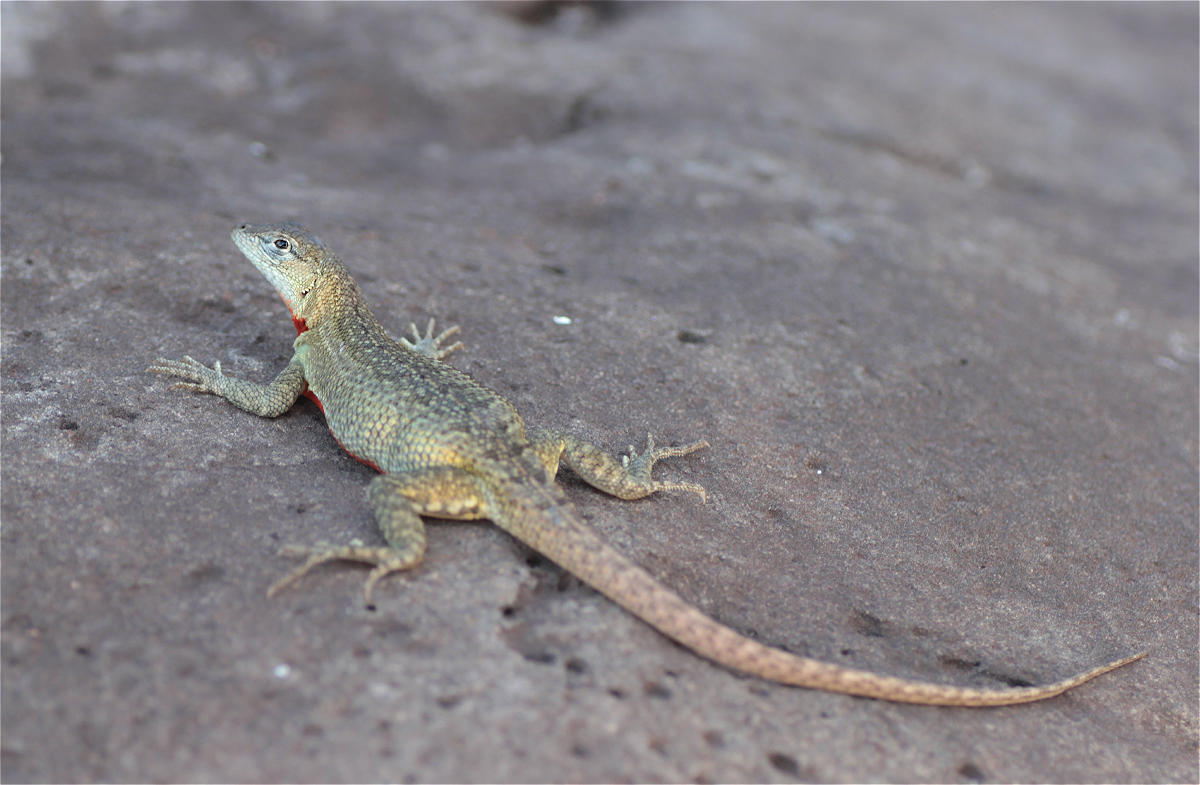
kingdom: Animalia
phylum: Chordata
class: Squamata
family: Tropiduridae
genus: Microlophus
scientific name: Microlophus bivittatus
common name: San cristobal lava lizard
